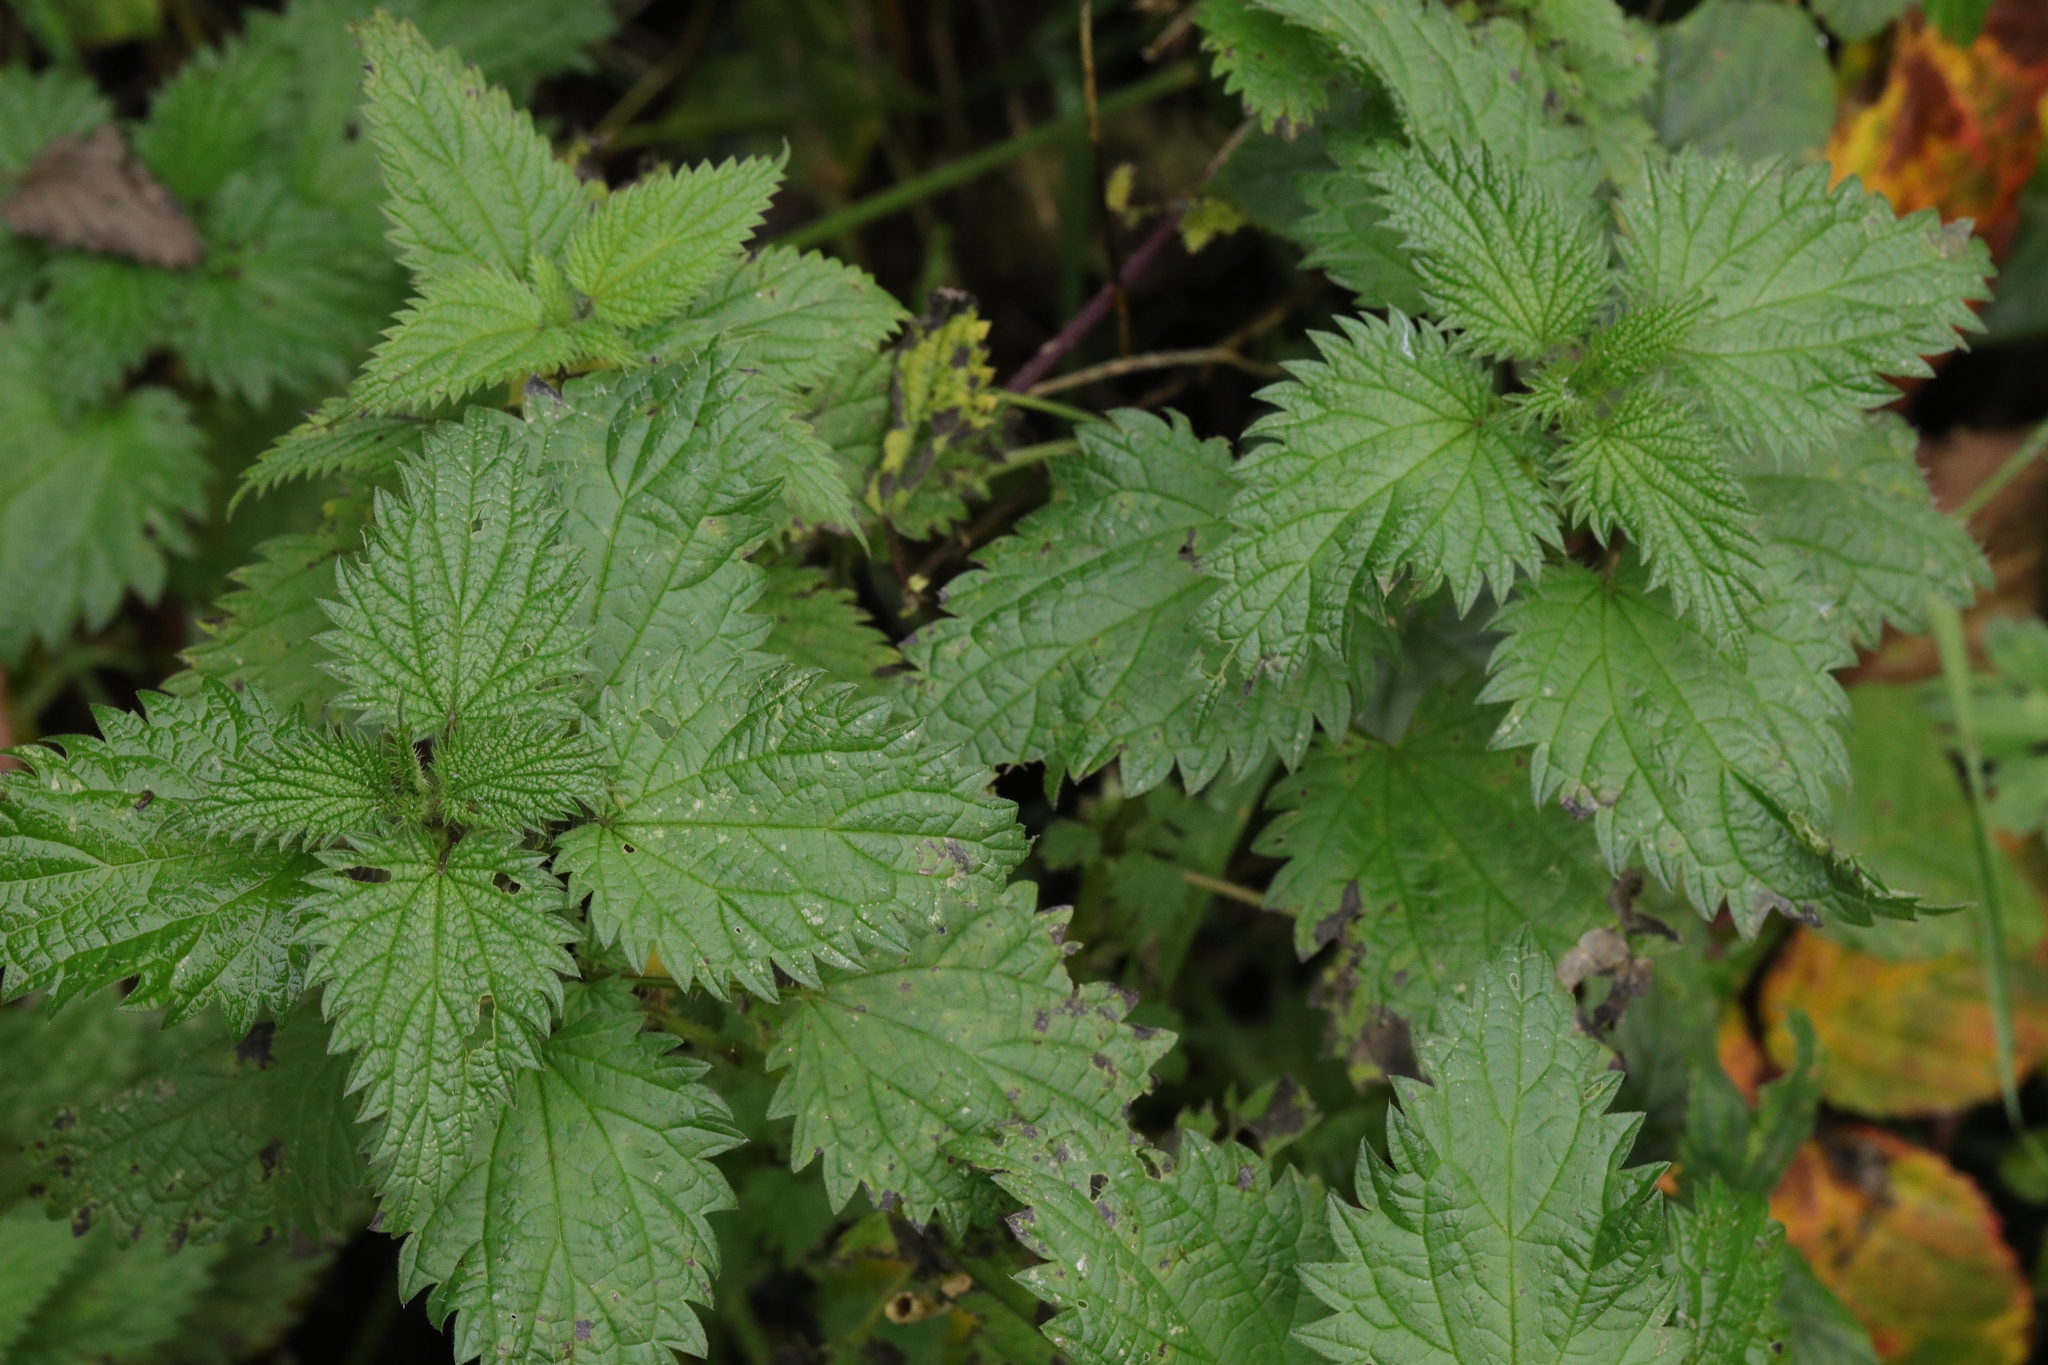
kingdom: Plantae
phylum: Tracheophyta
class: Magnoliopsida
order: Rosales
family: Urticaceae
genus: Urtica
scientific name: Urtica dioica
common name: Common nettle
